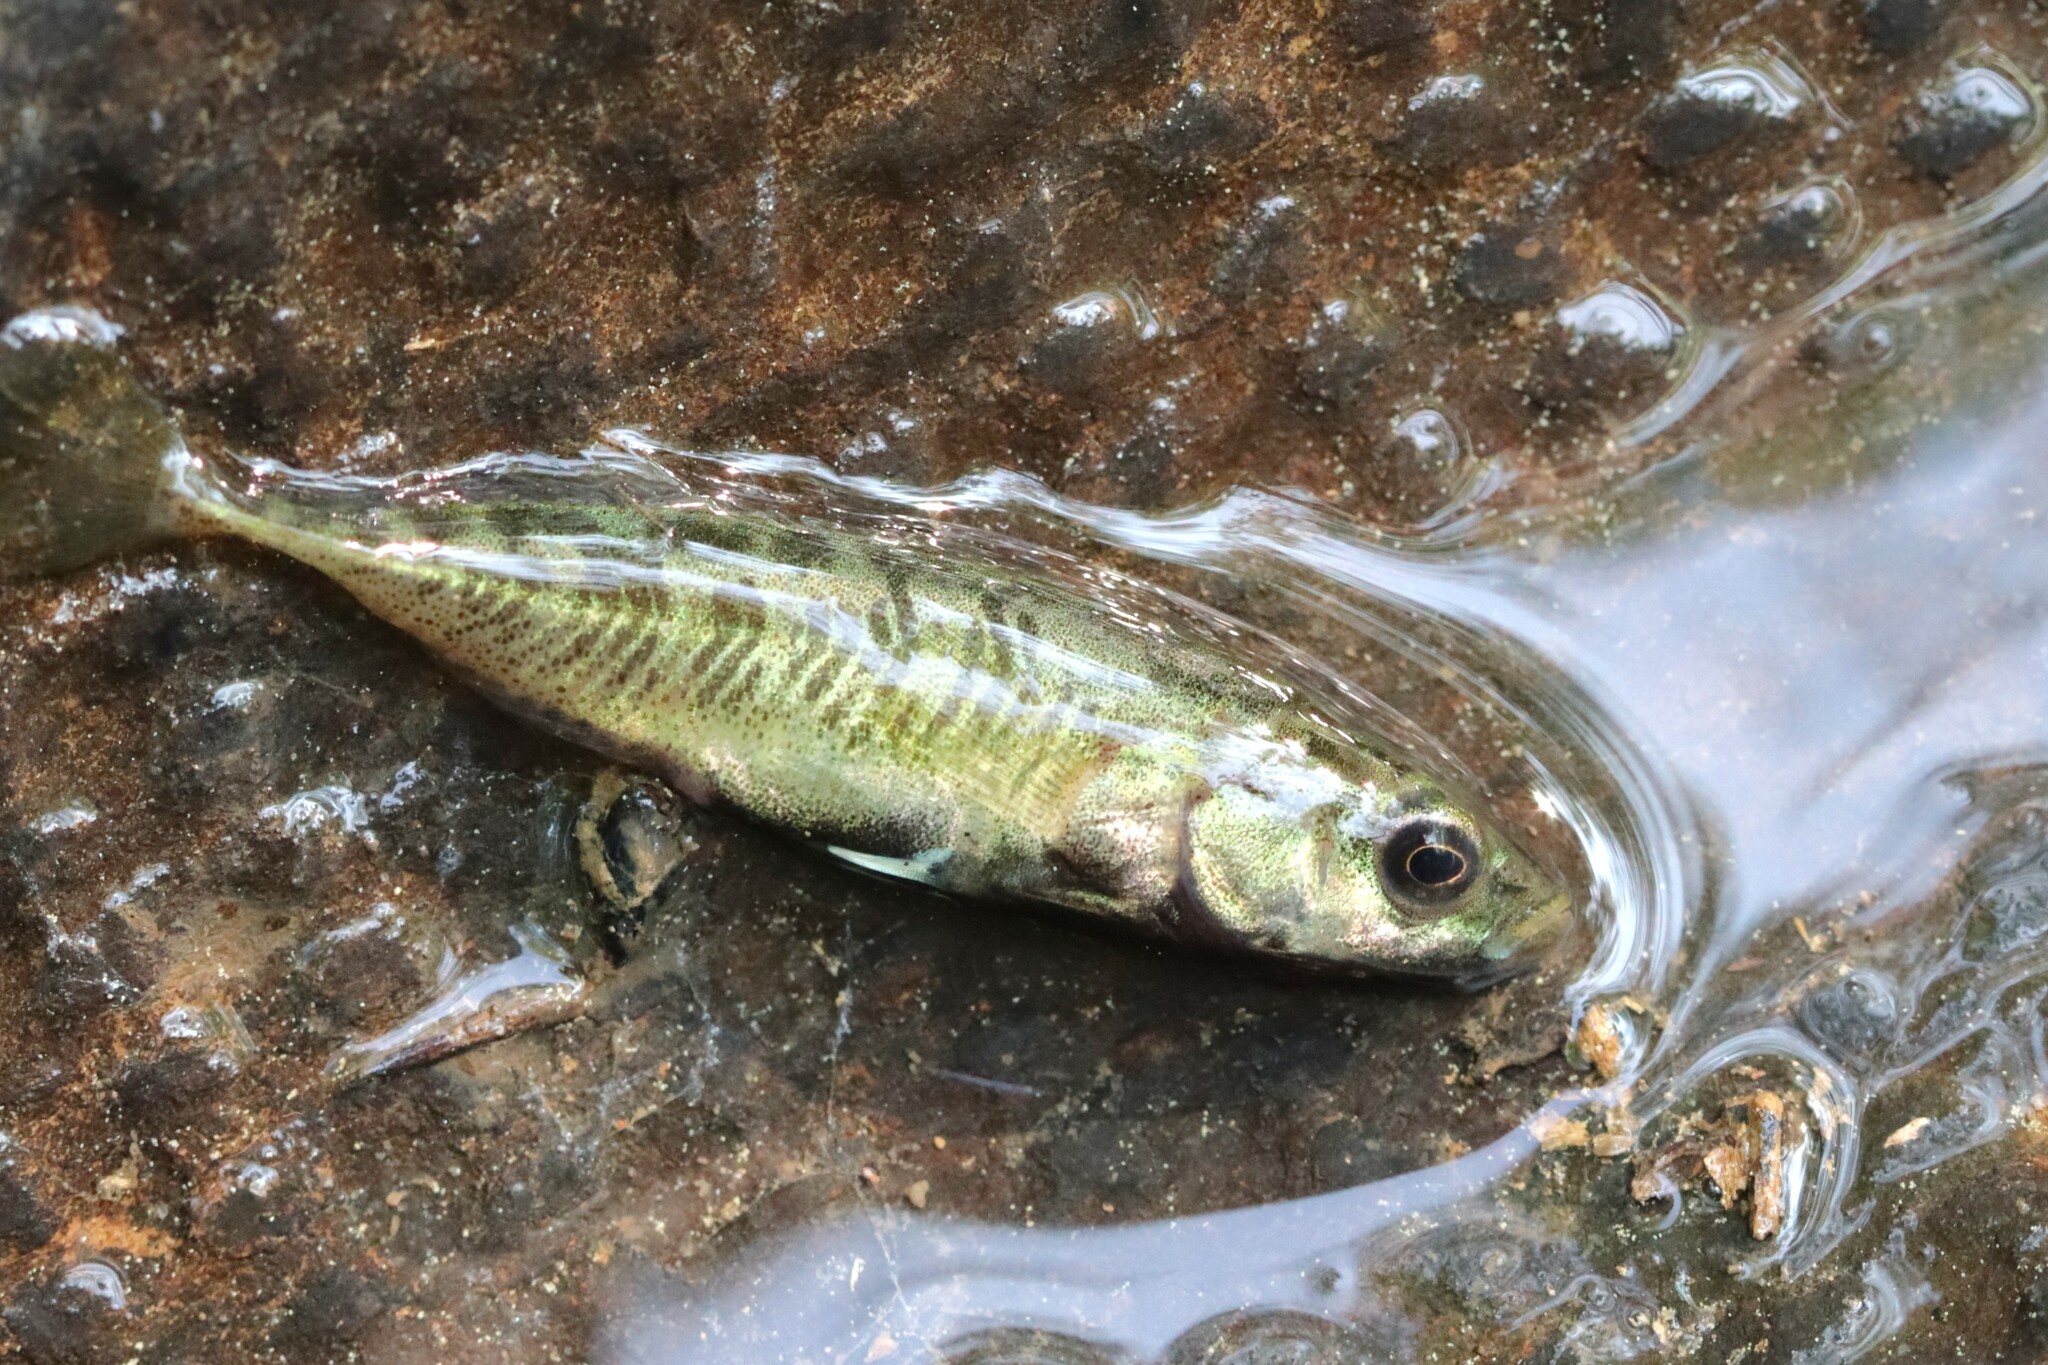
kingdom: Animalia
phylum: Chordata
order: Gasterosteiformes
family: Gasterosteidae
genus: Pungitius
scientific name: Pungitius pungitius
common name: Nine-spined stickleback
